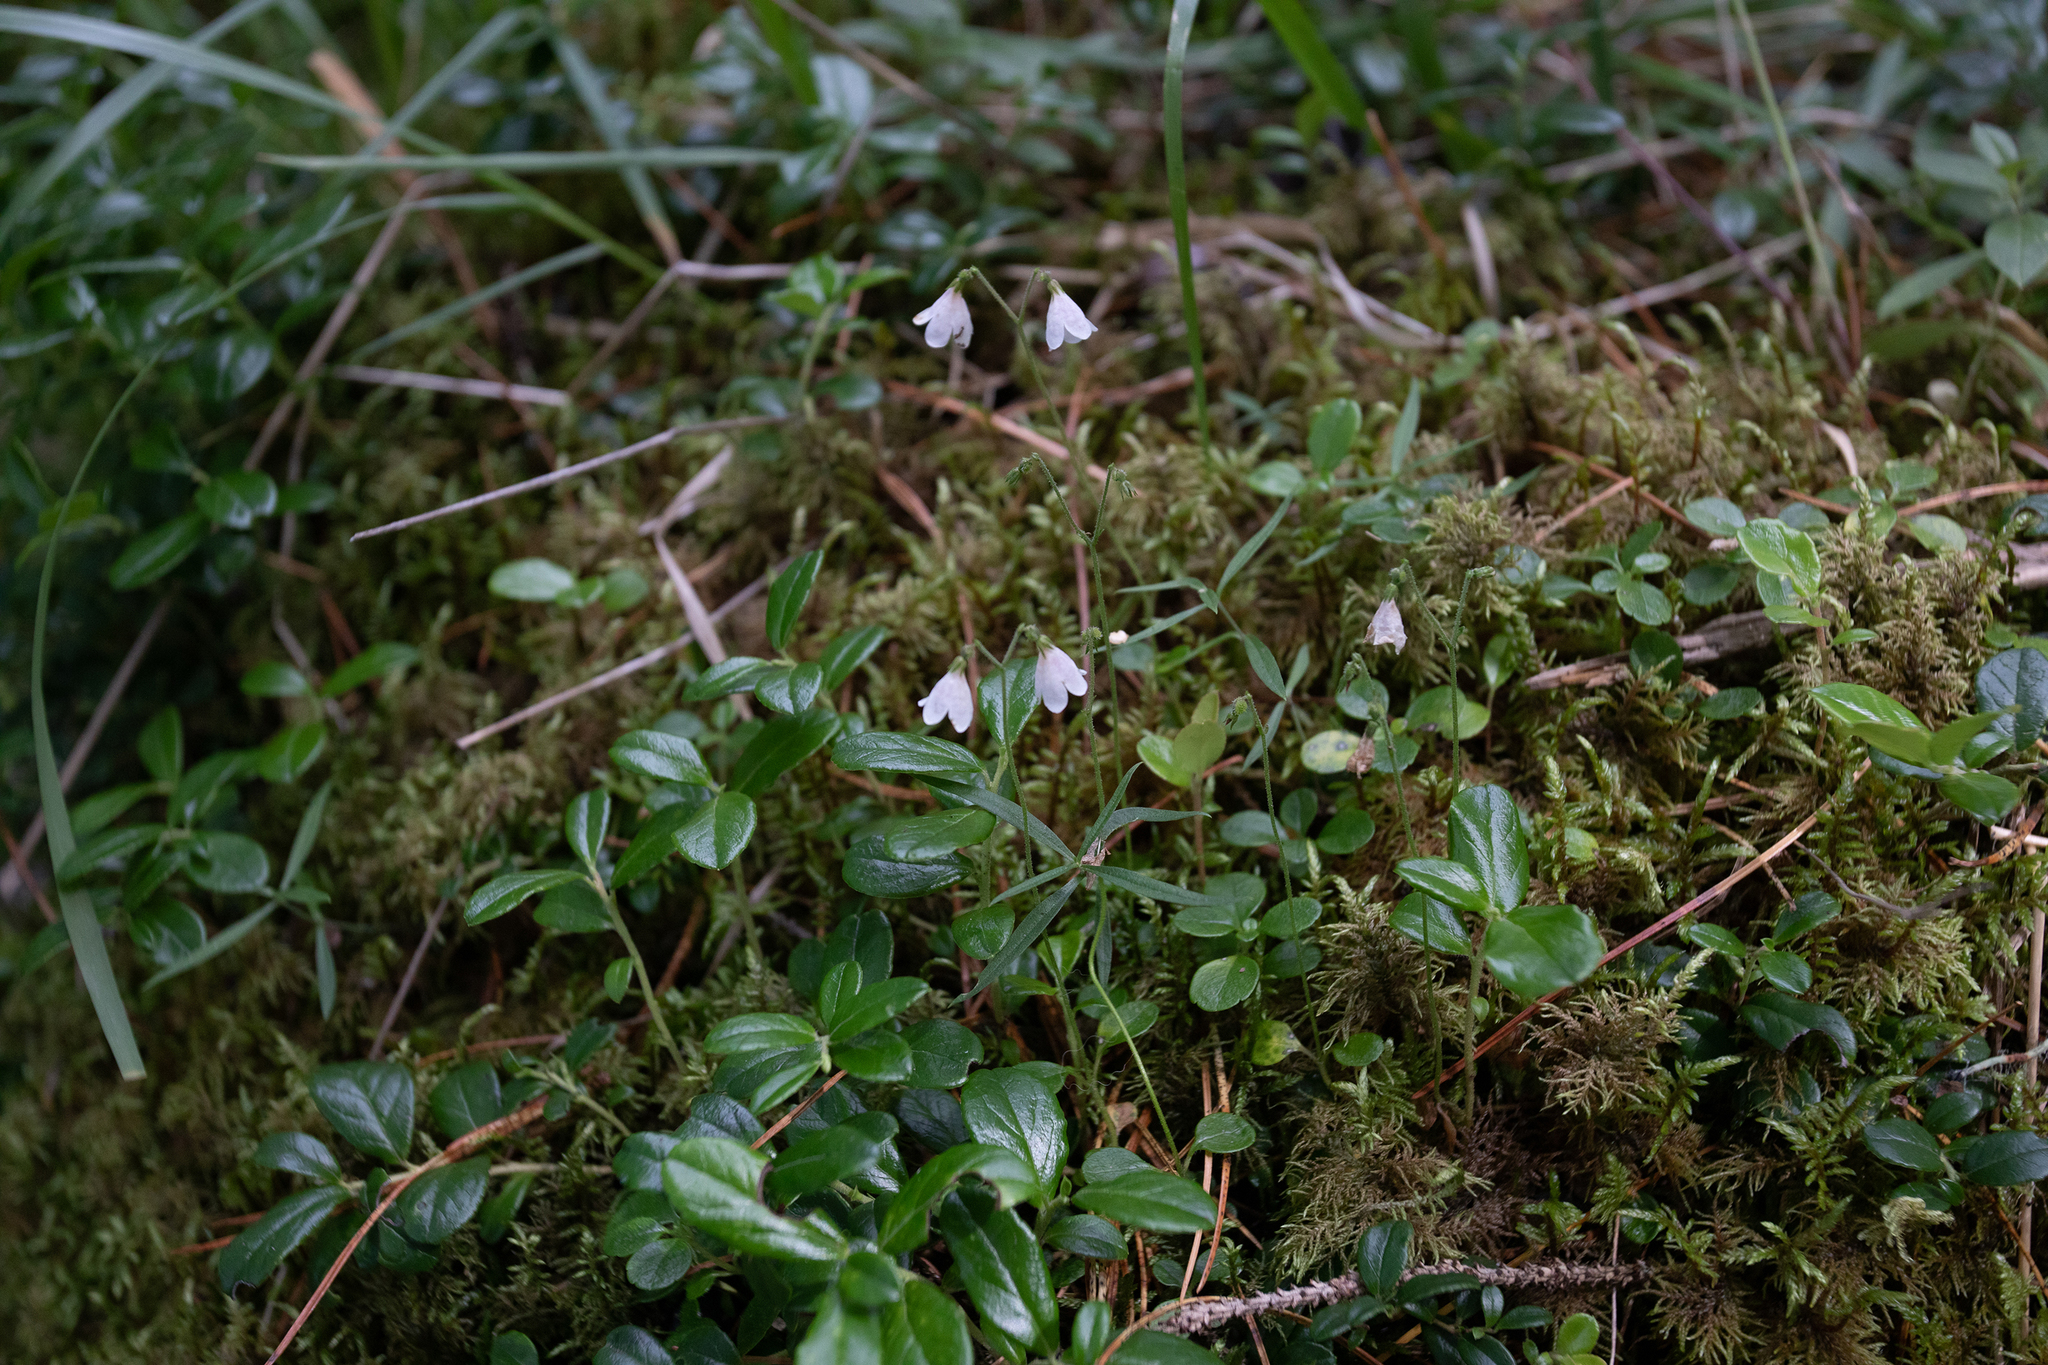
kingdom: Plantae
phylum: Tracheophyta
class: Magnoliopsida
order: Dipsacales
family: Caprifoliaceae
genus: Linnaea
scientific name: Linnaea borealis
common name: Twinflower
